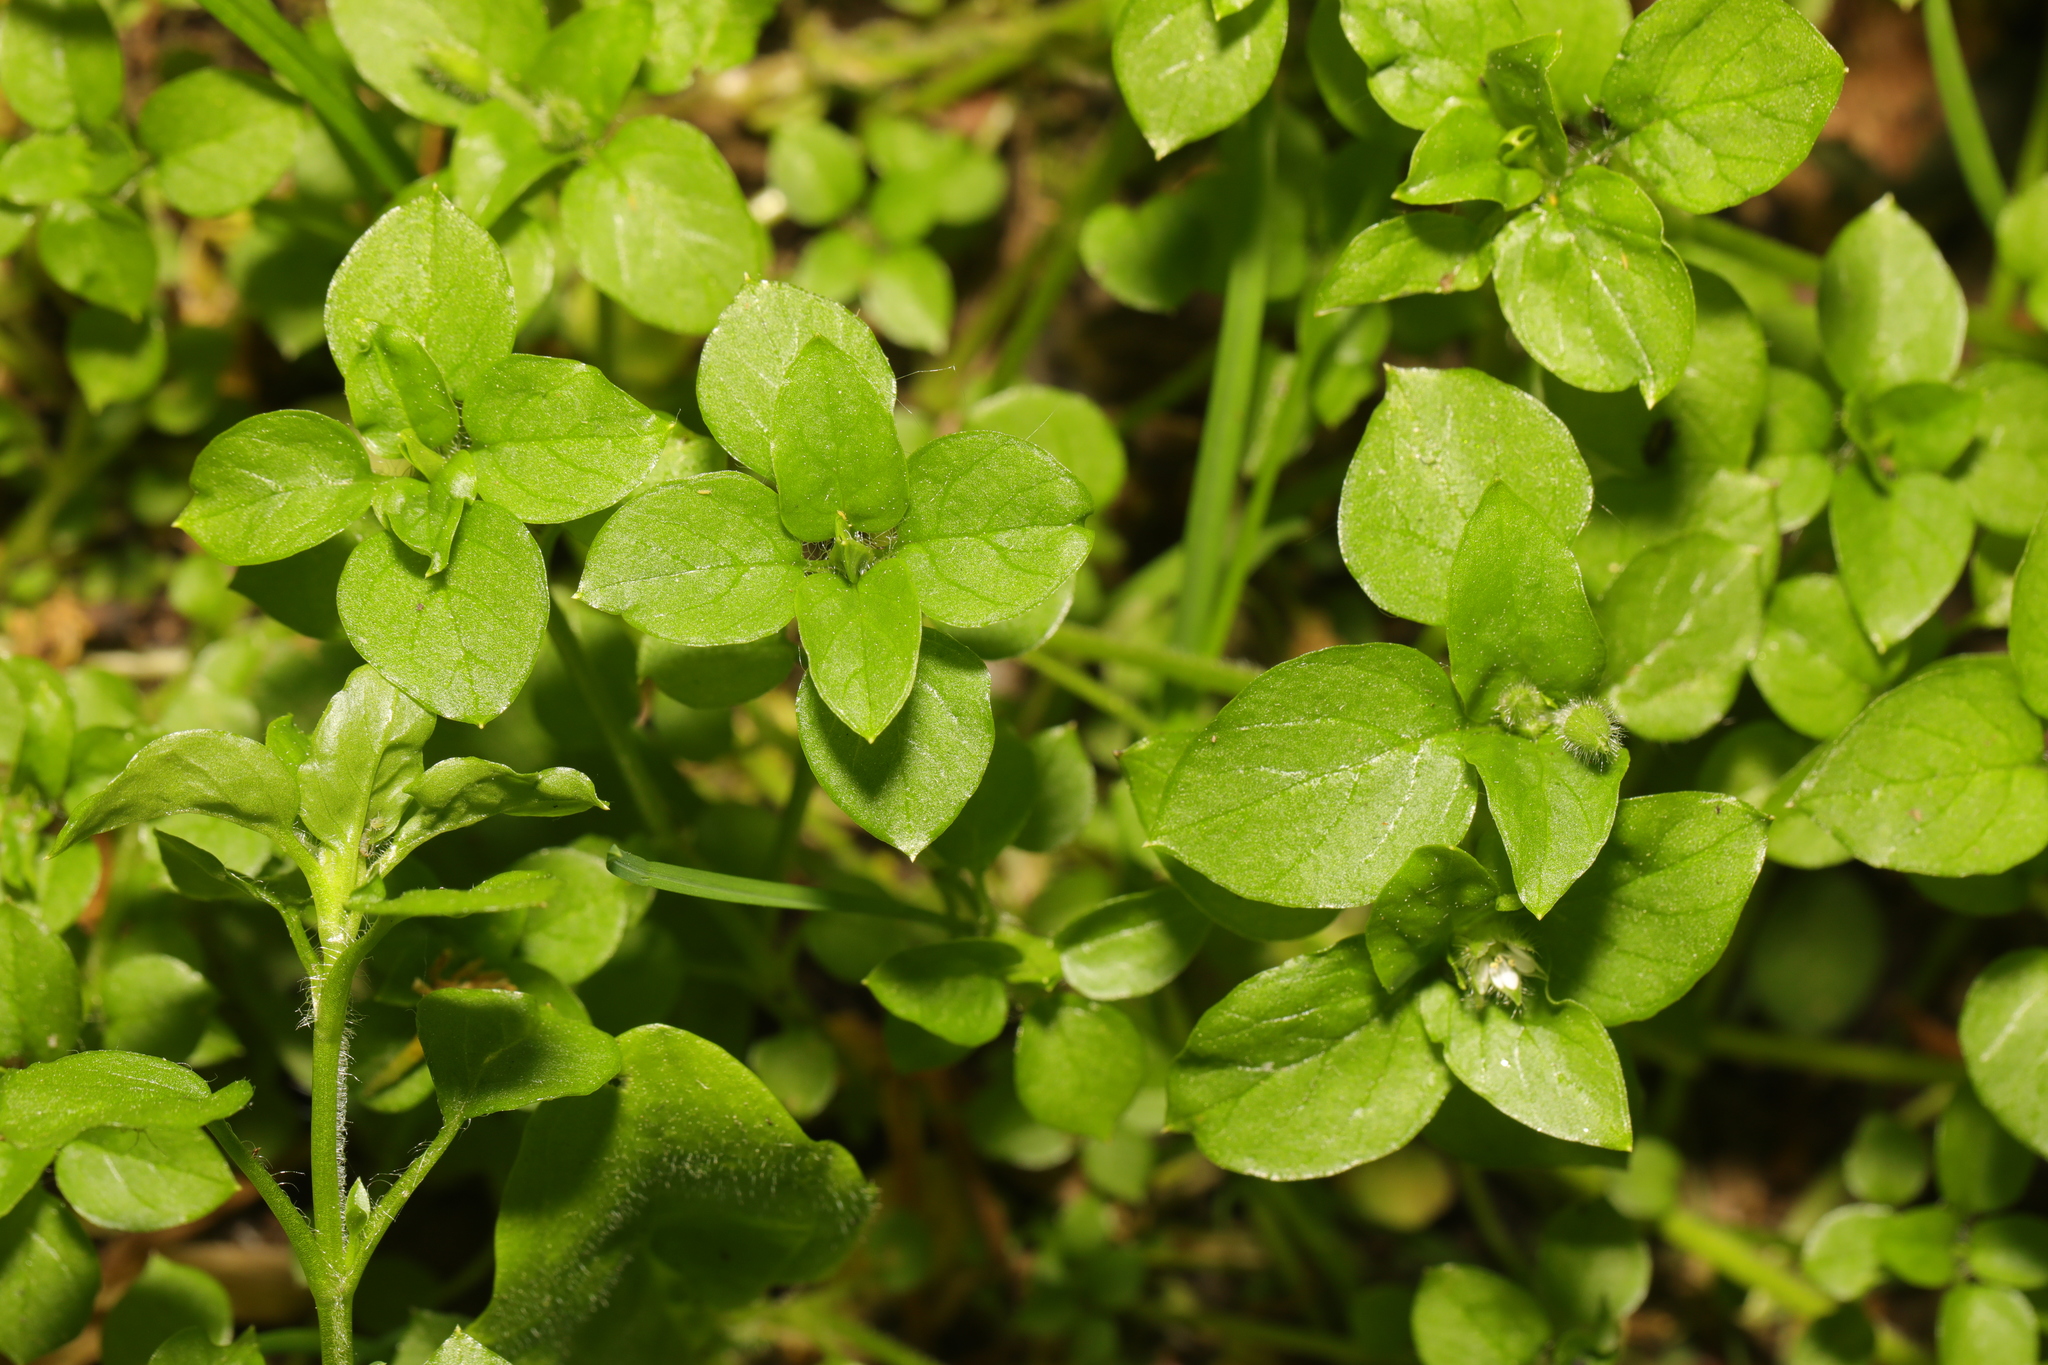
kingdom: Plantae
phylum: Tracheophyta
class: Magnoliopsida
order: Caryophyllales
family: Caryophyllaceae
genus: Stellaria
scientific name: Stellaria media
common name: Common chickweed
